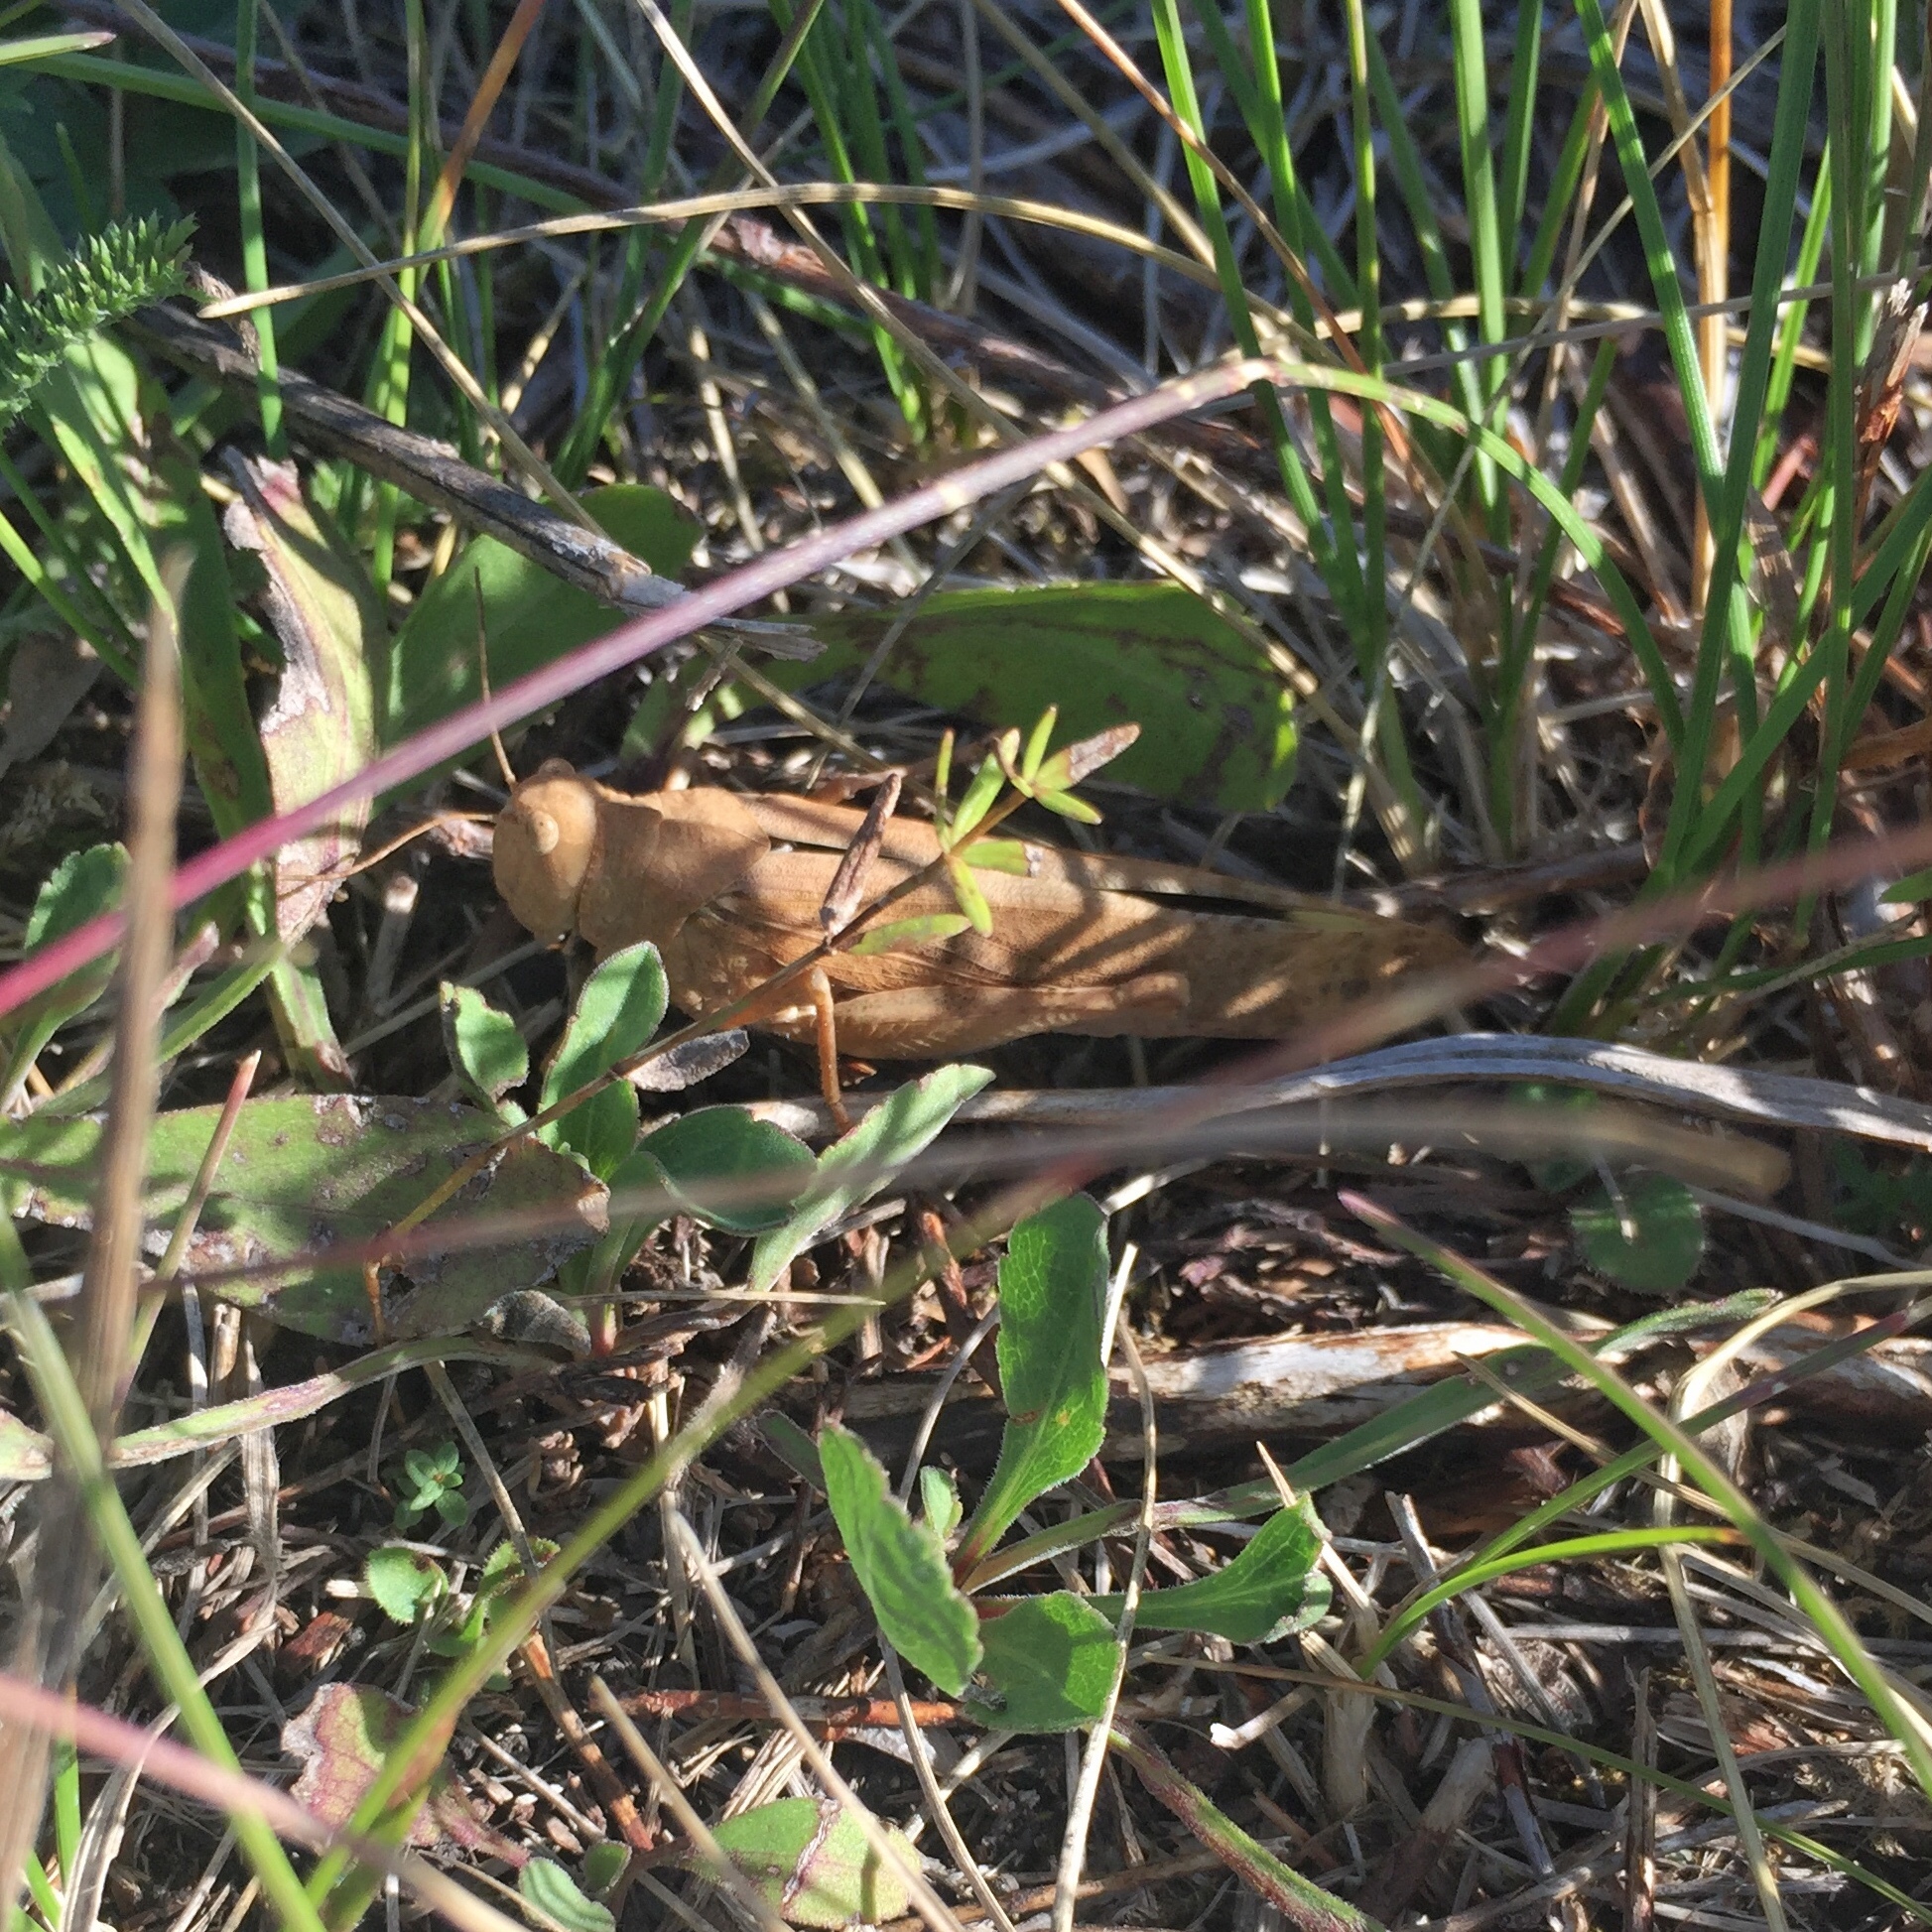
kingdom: Animalia
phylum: Arthropoda
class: Insecta
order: Orthoptera
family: Acrididae
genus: Dissosteira
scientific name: Dissosteira carolina
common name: Carolina grasshopper
